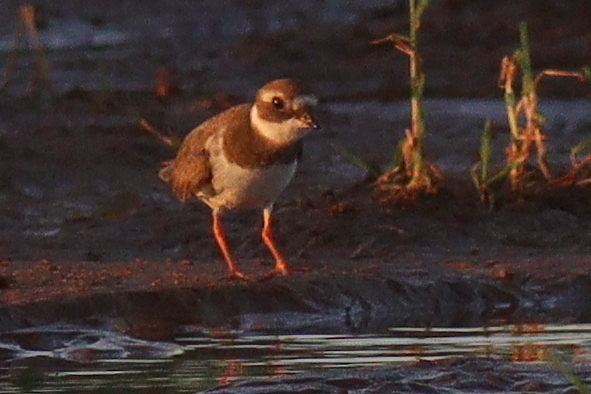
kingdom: Animalia
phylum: Chordata
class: Aves
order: Charadriiformes
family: Charadriidae
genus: Charadrius
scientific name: Charadrius hiaticula
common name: Common ringed plover
